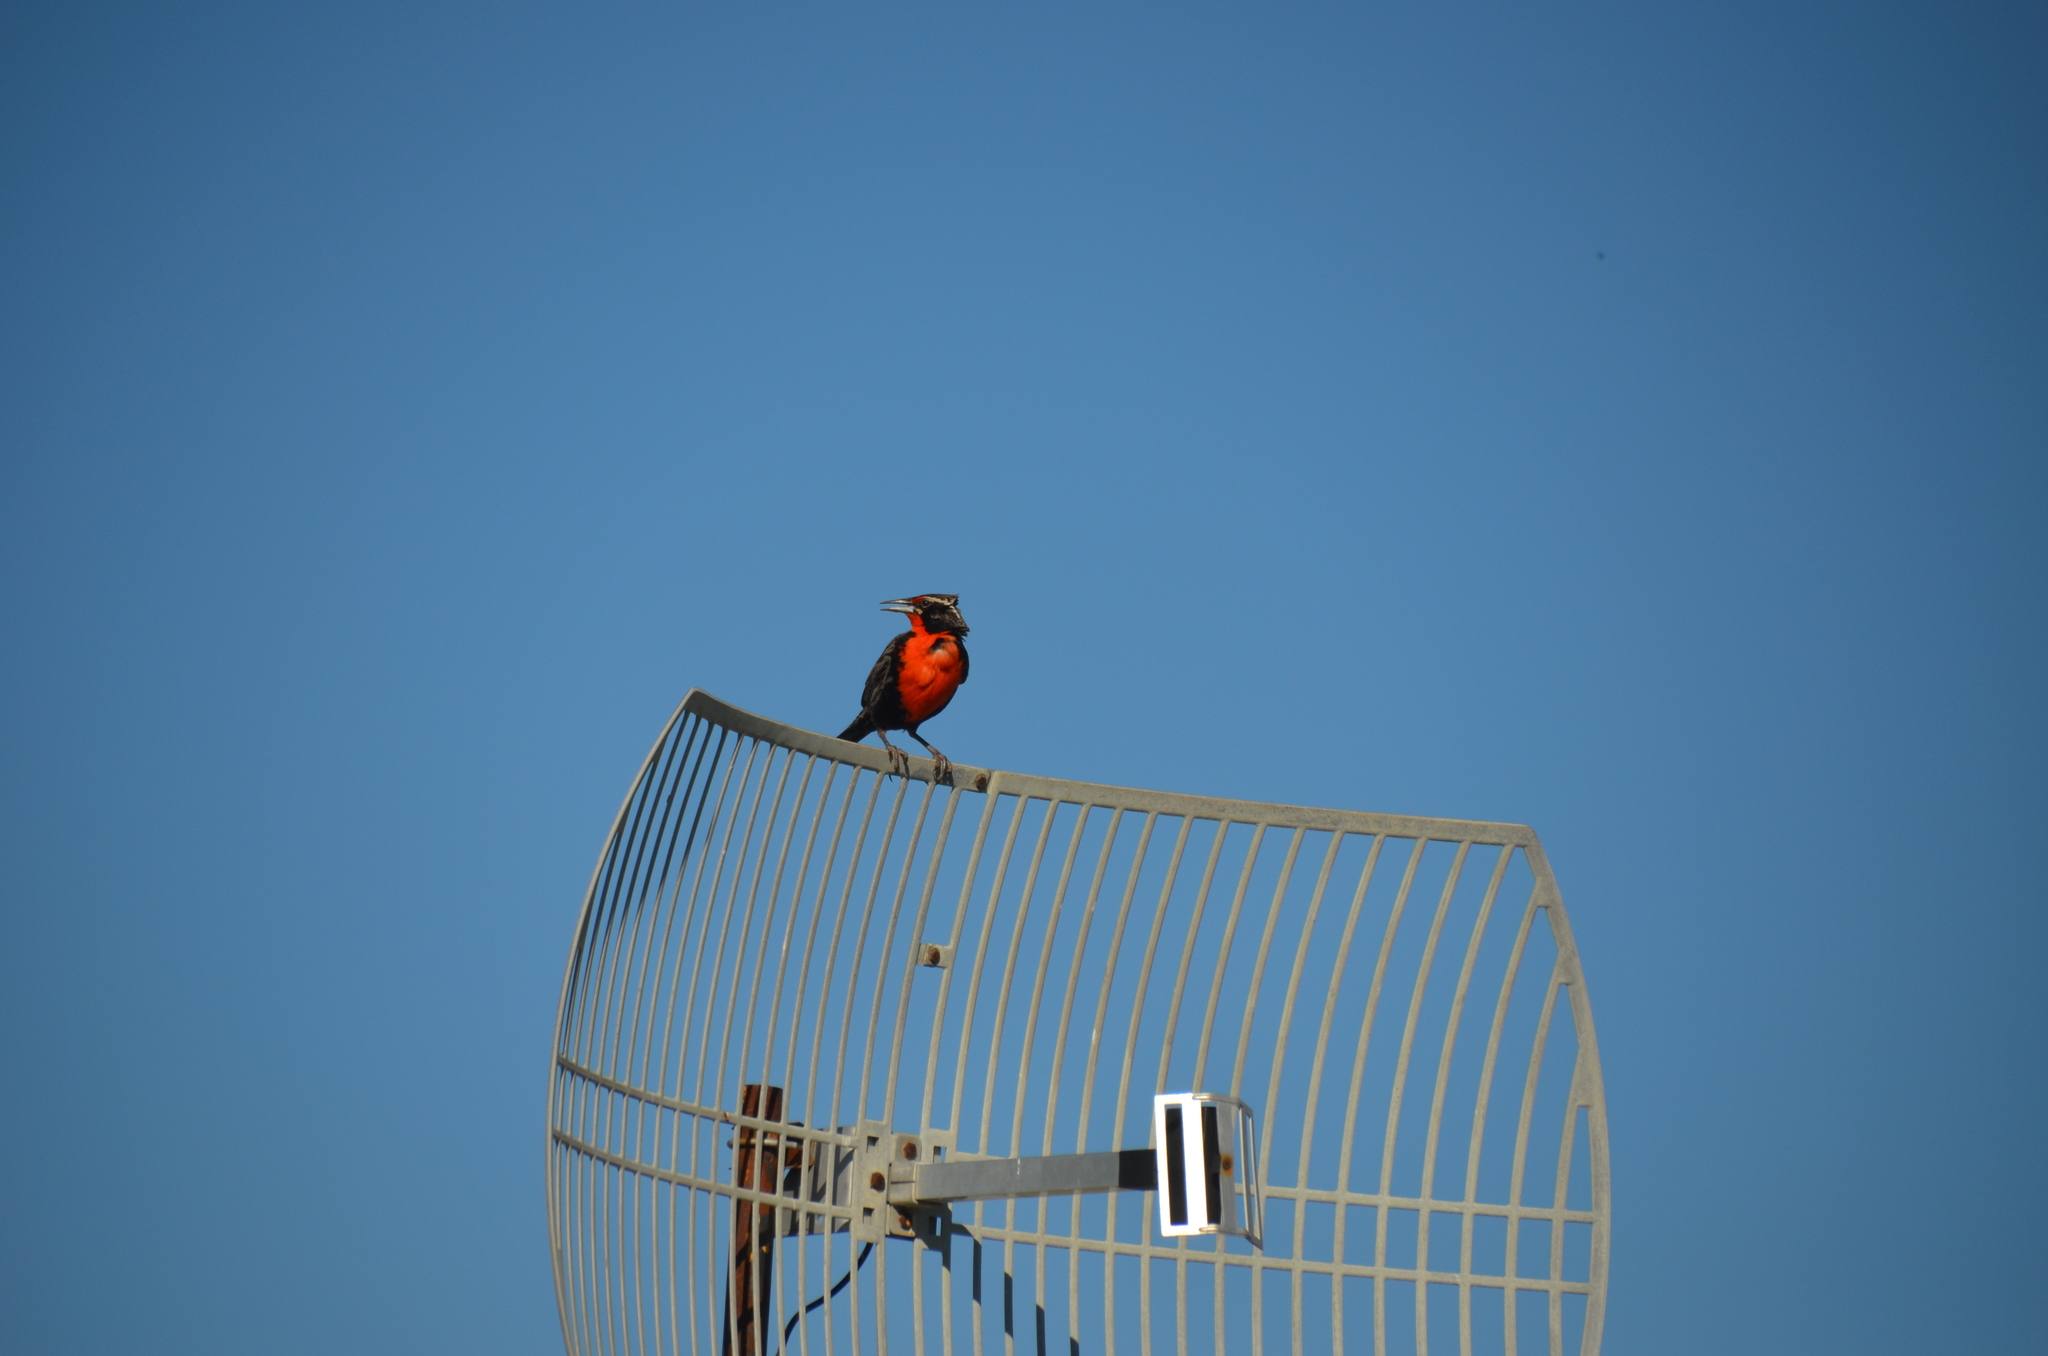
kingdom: Animalia
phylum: Chordata
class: Aves
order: Passeriformes
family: Icteridae
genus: Sturnella
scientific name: Sturnella loyca
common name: Long-tailed meadowlark
